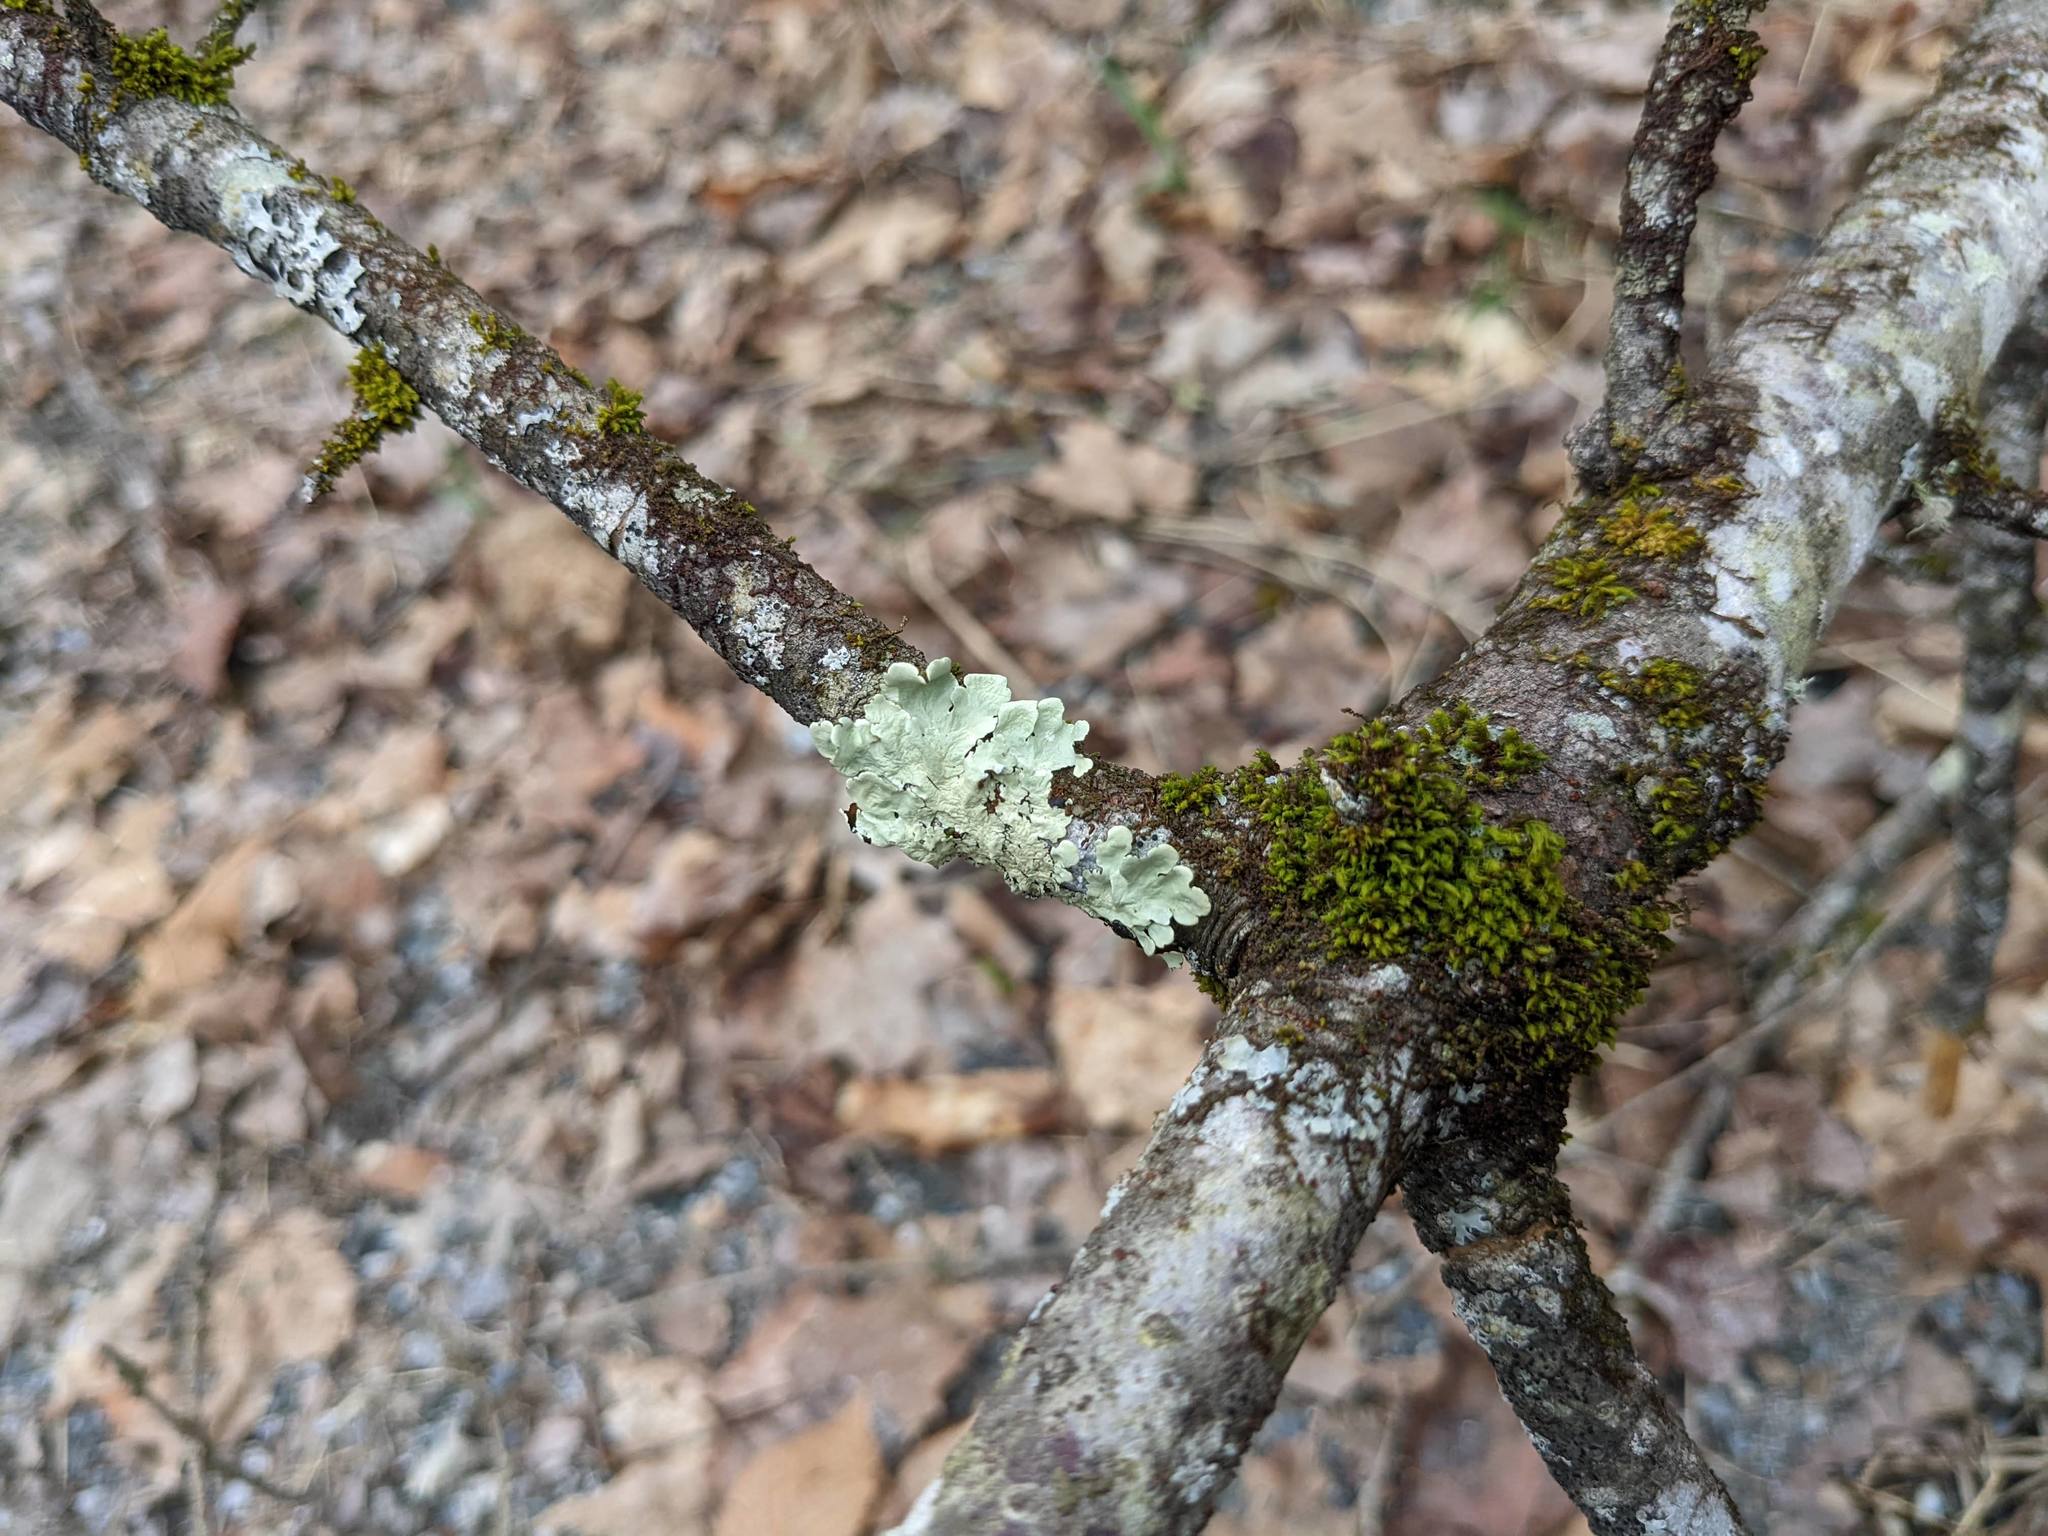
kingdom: Fungi
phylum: Ascomycota
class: Lecanoromycetes
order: Lecanorales
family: Parmeliaceae
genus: Flavoparmelia
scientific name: Flavoparmelia caperata
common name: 40-mile per hour lichen
